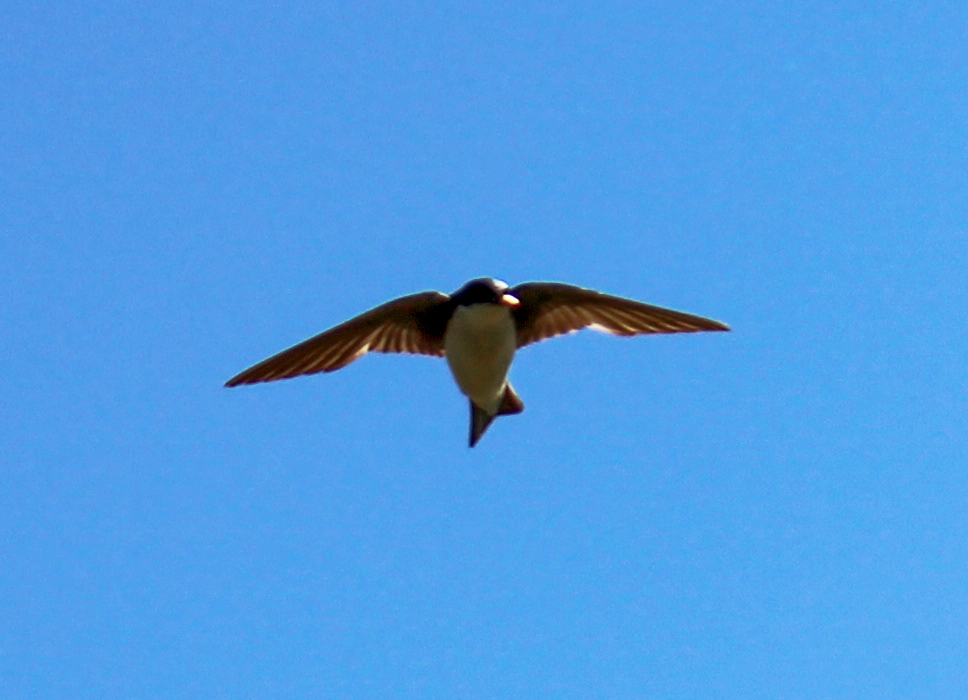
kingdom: Animalia
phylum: Chordata
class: Aves
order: Passeriformes
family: Hirundinidae
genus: Tachycineta
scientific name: Tachycineta bicolor
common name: Tree swallow
